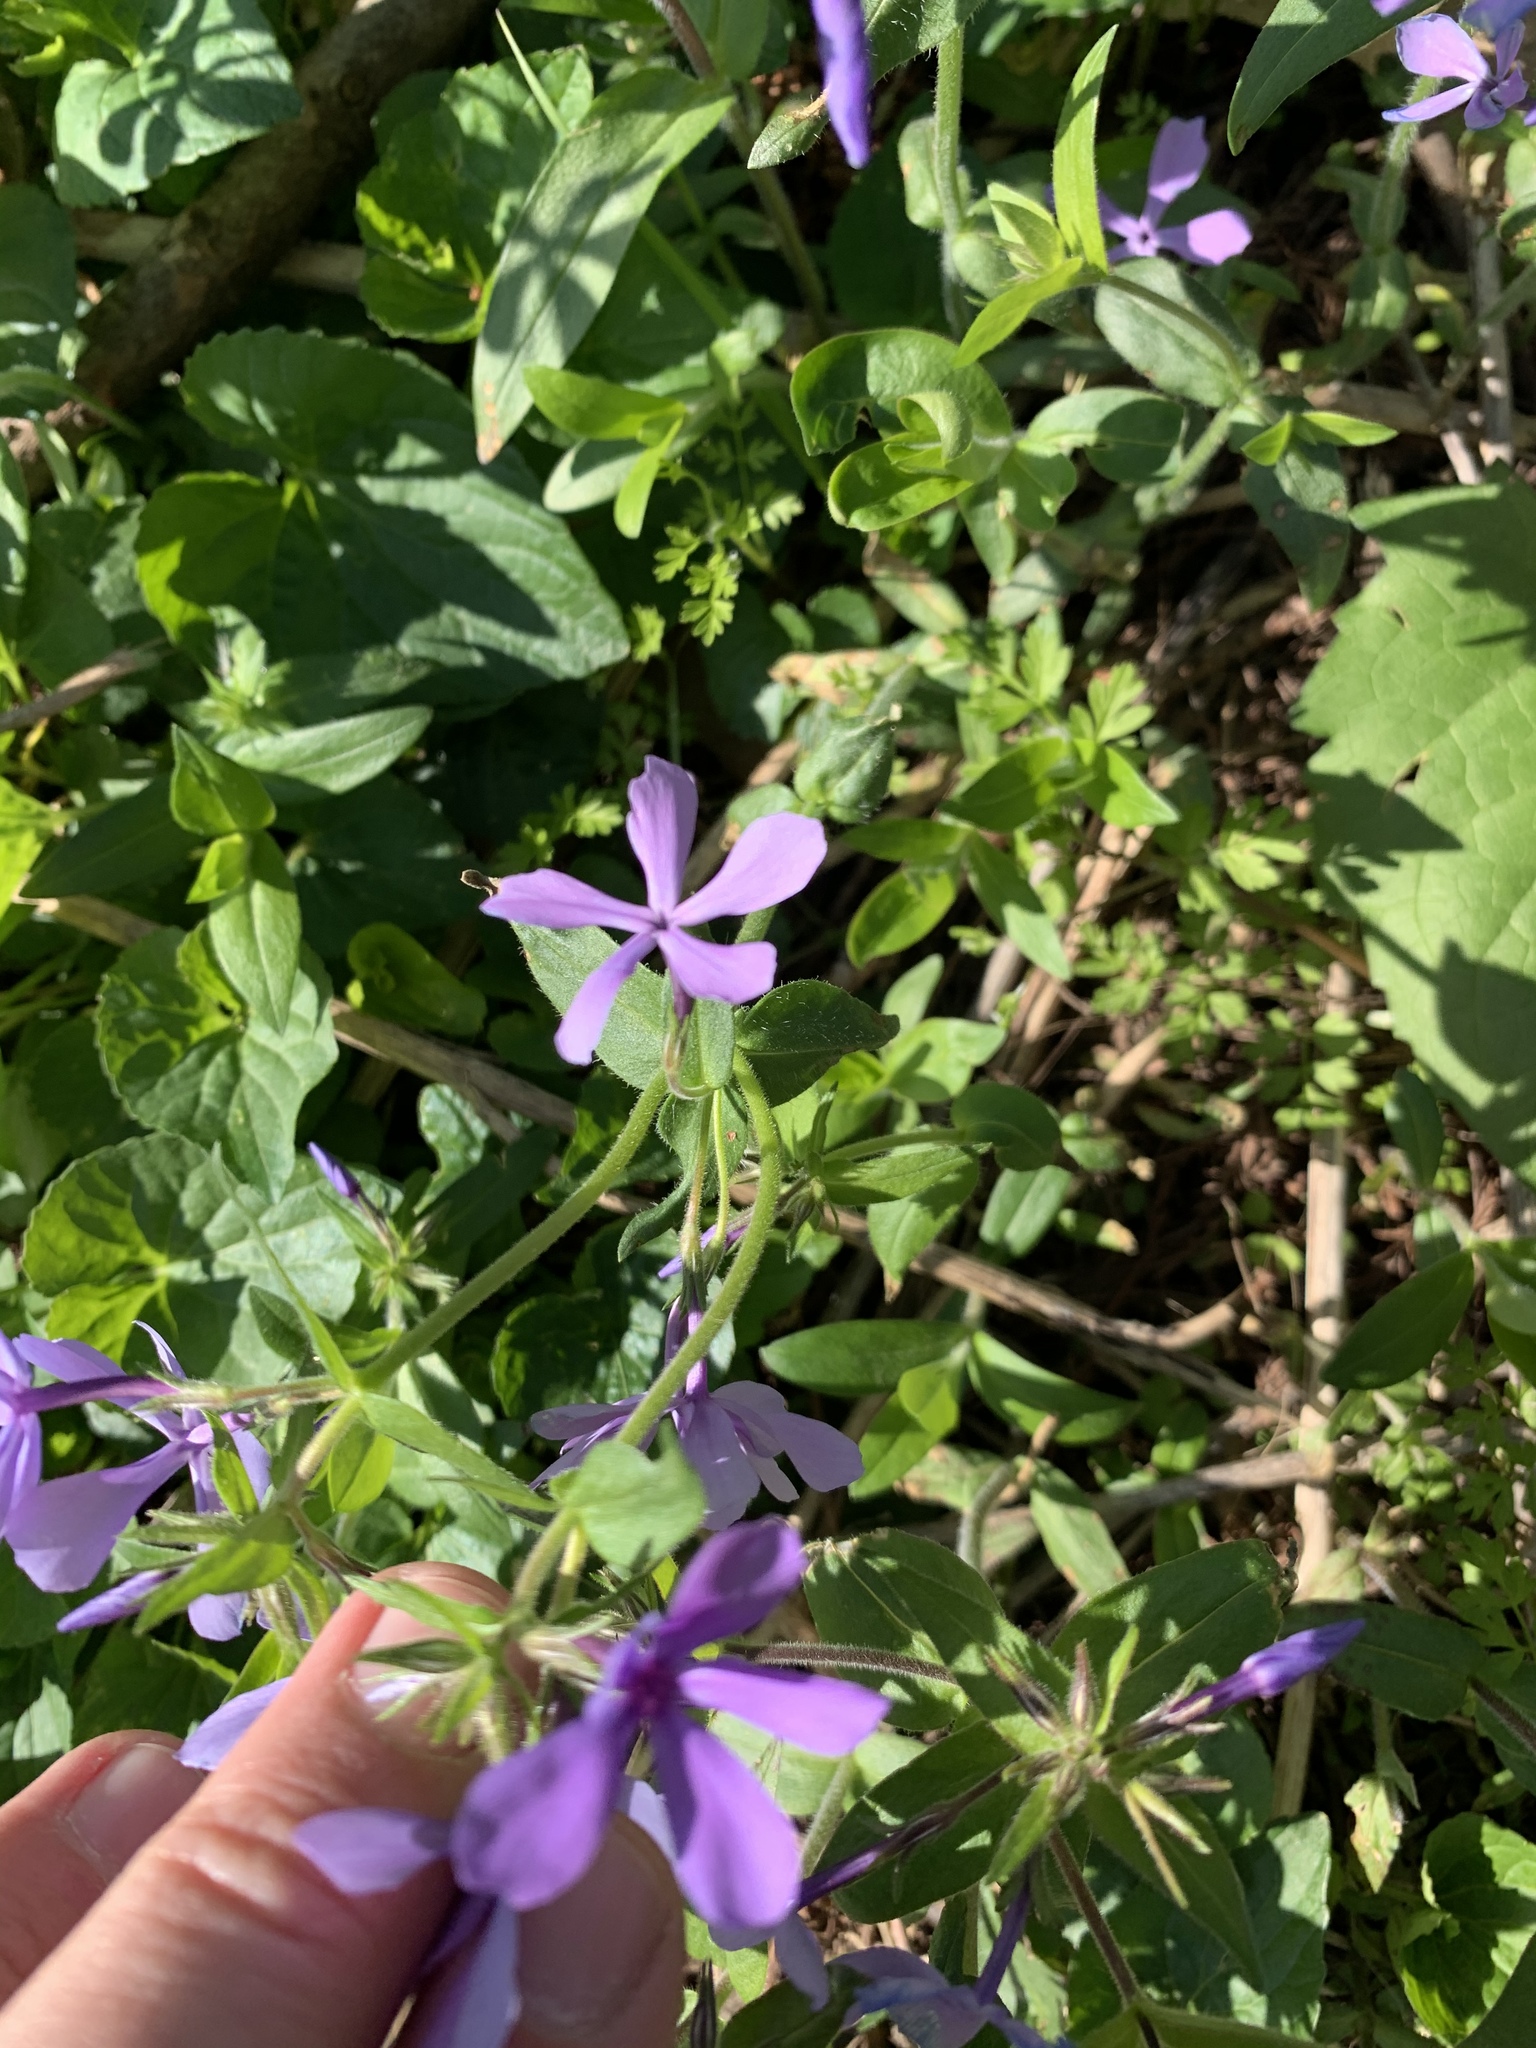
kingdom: Plantae
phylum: Tracheophyta
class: Magnoliopsida
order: Ericales
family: Polemoniaceae
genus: Phlox
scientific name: Phlox divaricata
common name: Blue phlox
